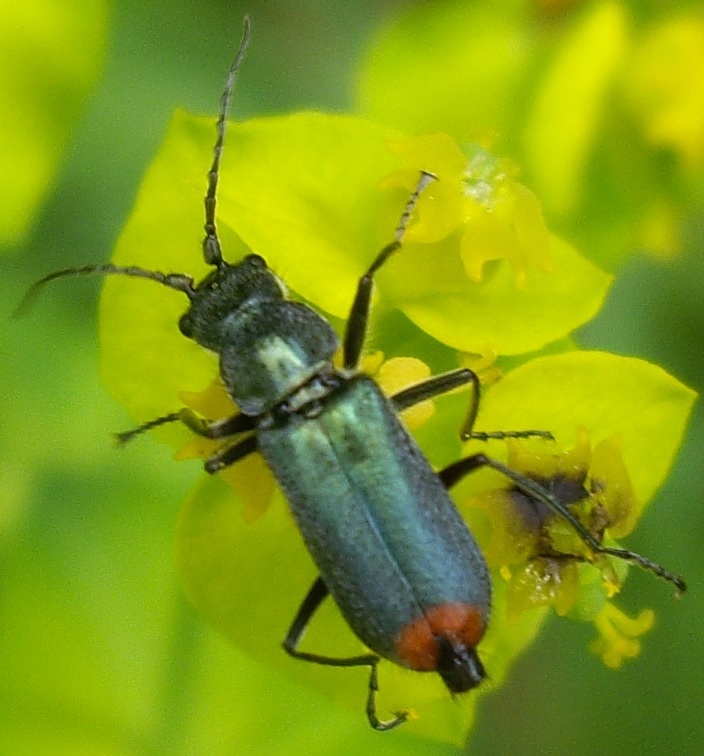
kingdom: Animalia
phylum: Arthropoda
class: Insecta
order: Coleoptera
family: Malachiidae
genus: Clanoptilus
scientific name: Clanoptilus geniculatus
